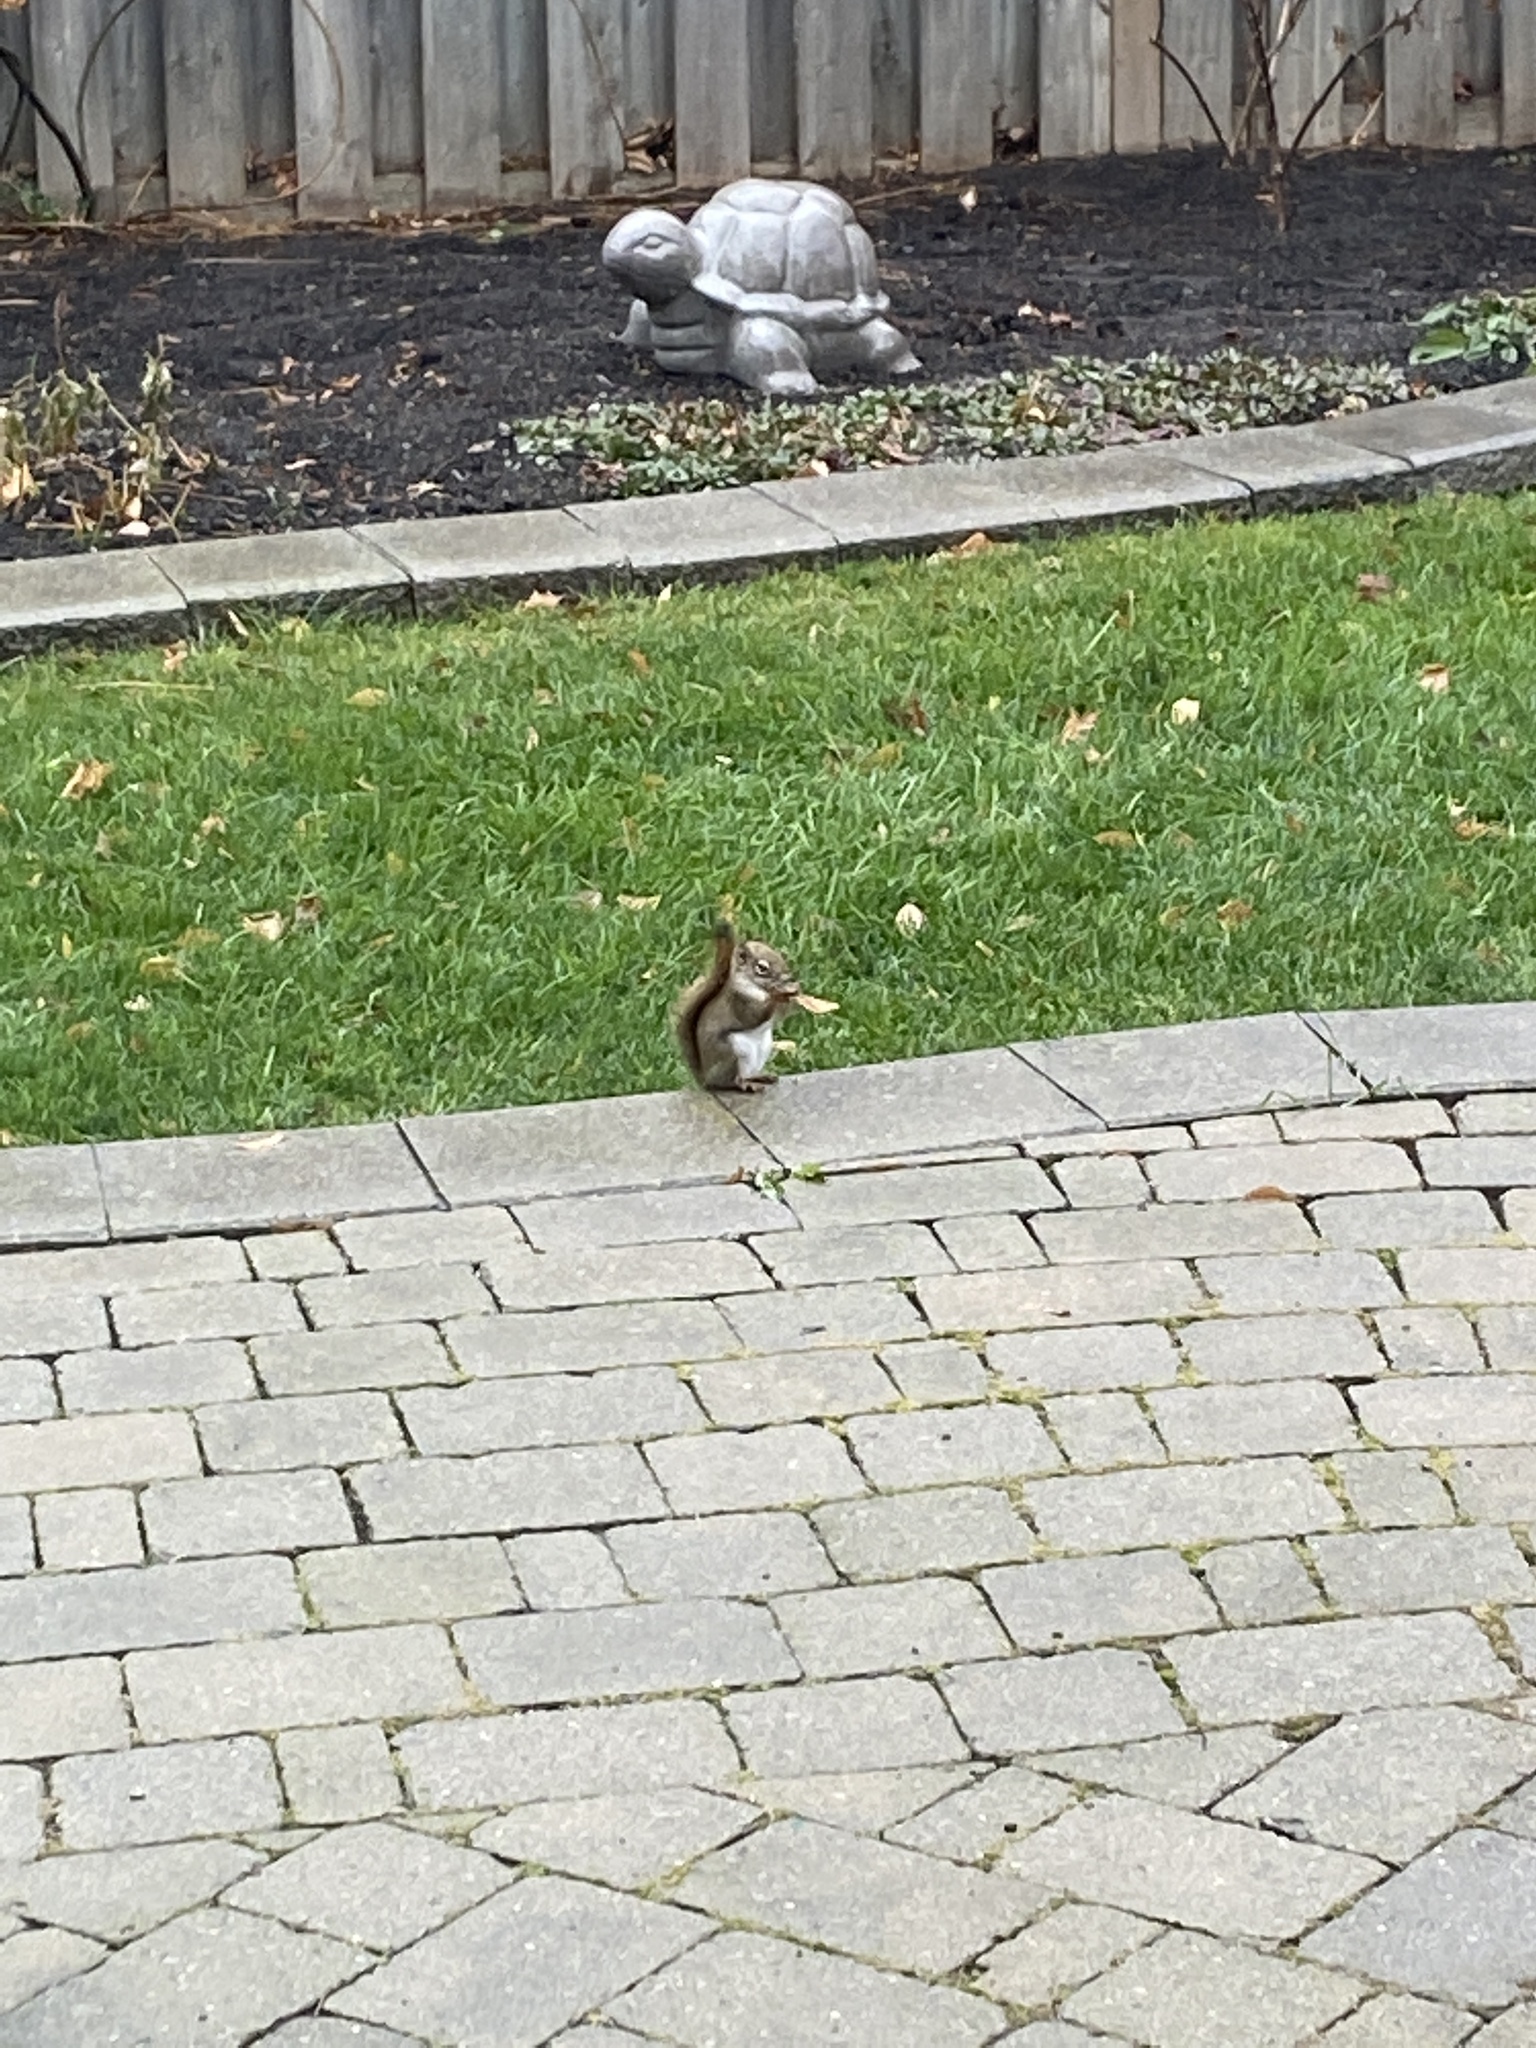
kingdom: Animalia
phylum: Chordata
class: Mammalia
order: Rodentia
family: Sciuridae
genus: Tamiasciurus
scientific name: Tamiasciurus hudsonicus
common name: Red squirrel
